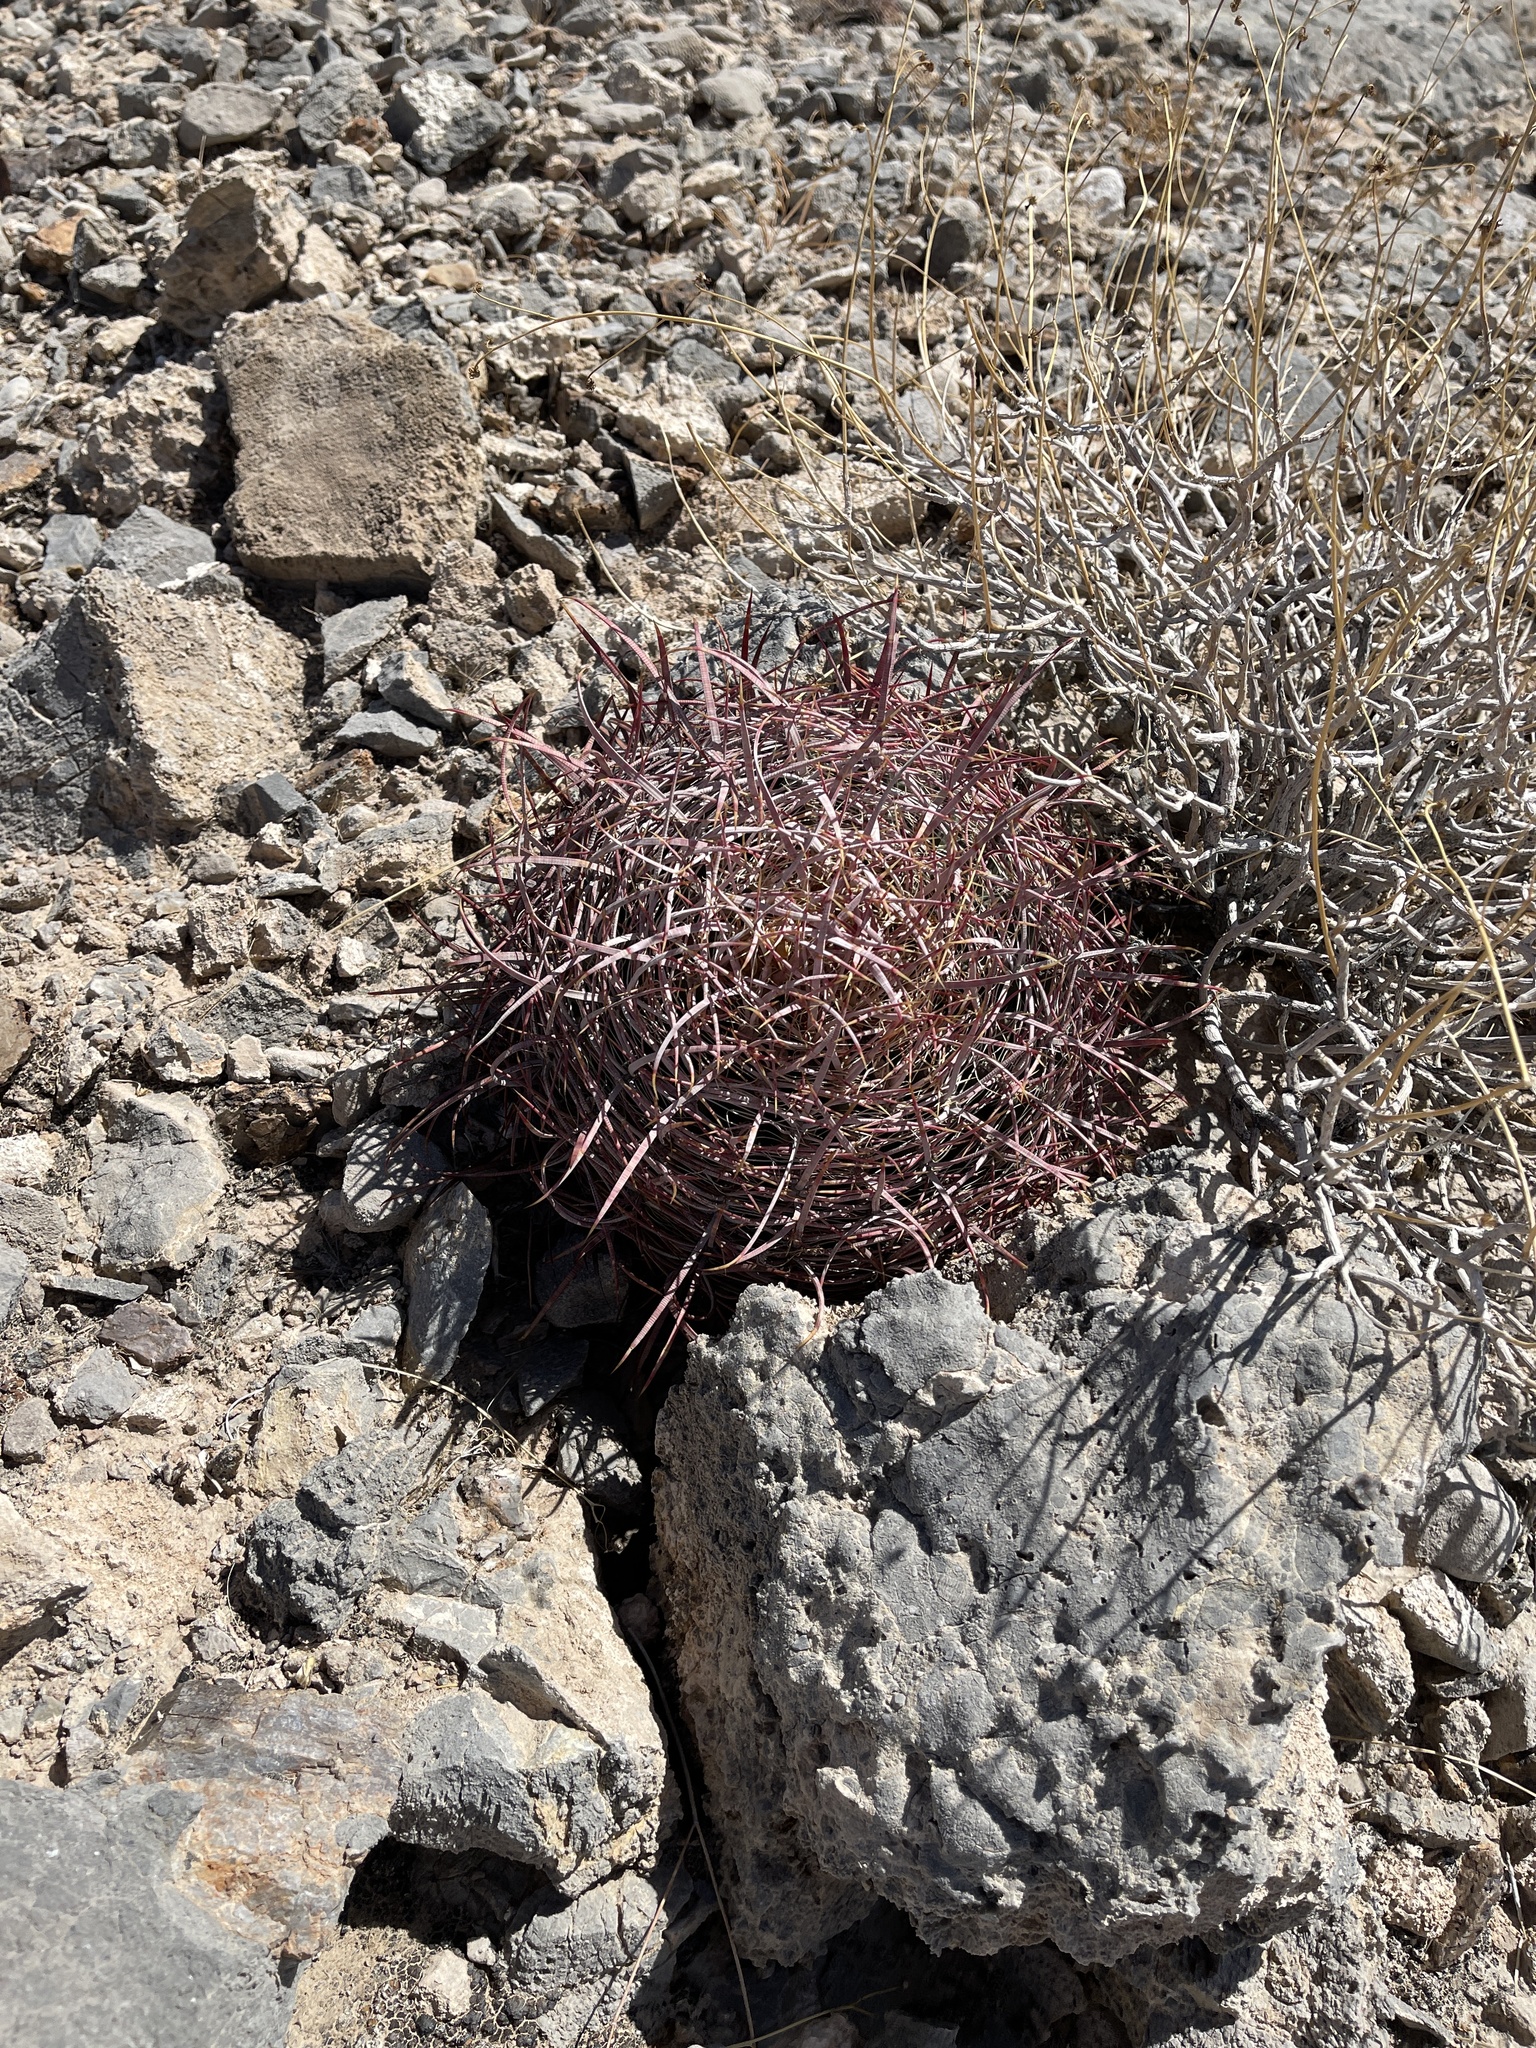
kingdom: Plantae
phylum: Tracheophyta
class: Magnoliopsida
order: Caryophyllales
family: Cactaceae
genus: Ferocactus
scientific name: Ferocactus cylindraceus
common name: California barrel cactus
